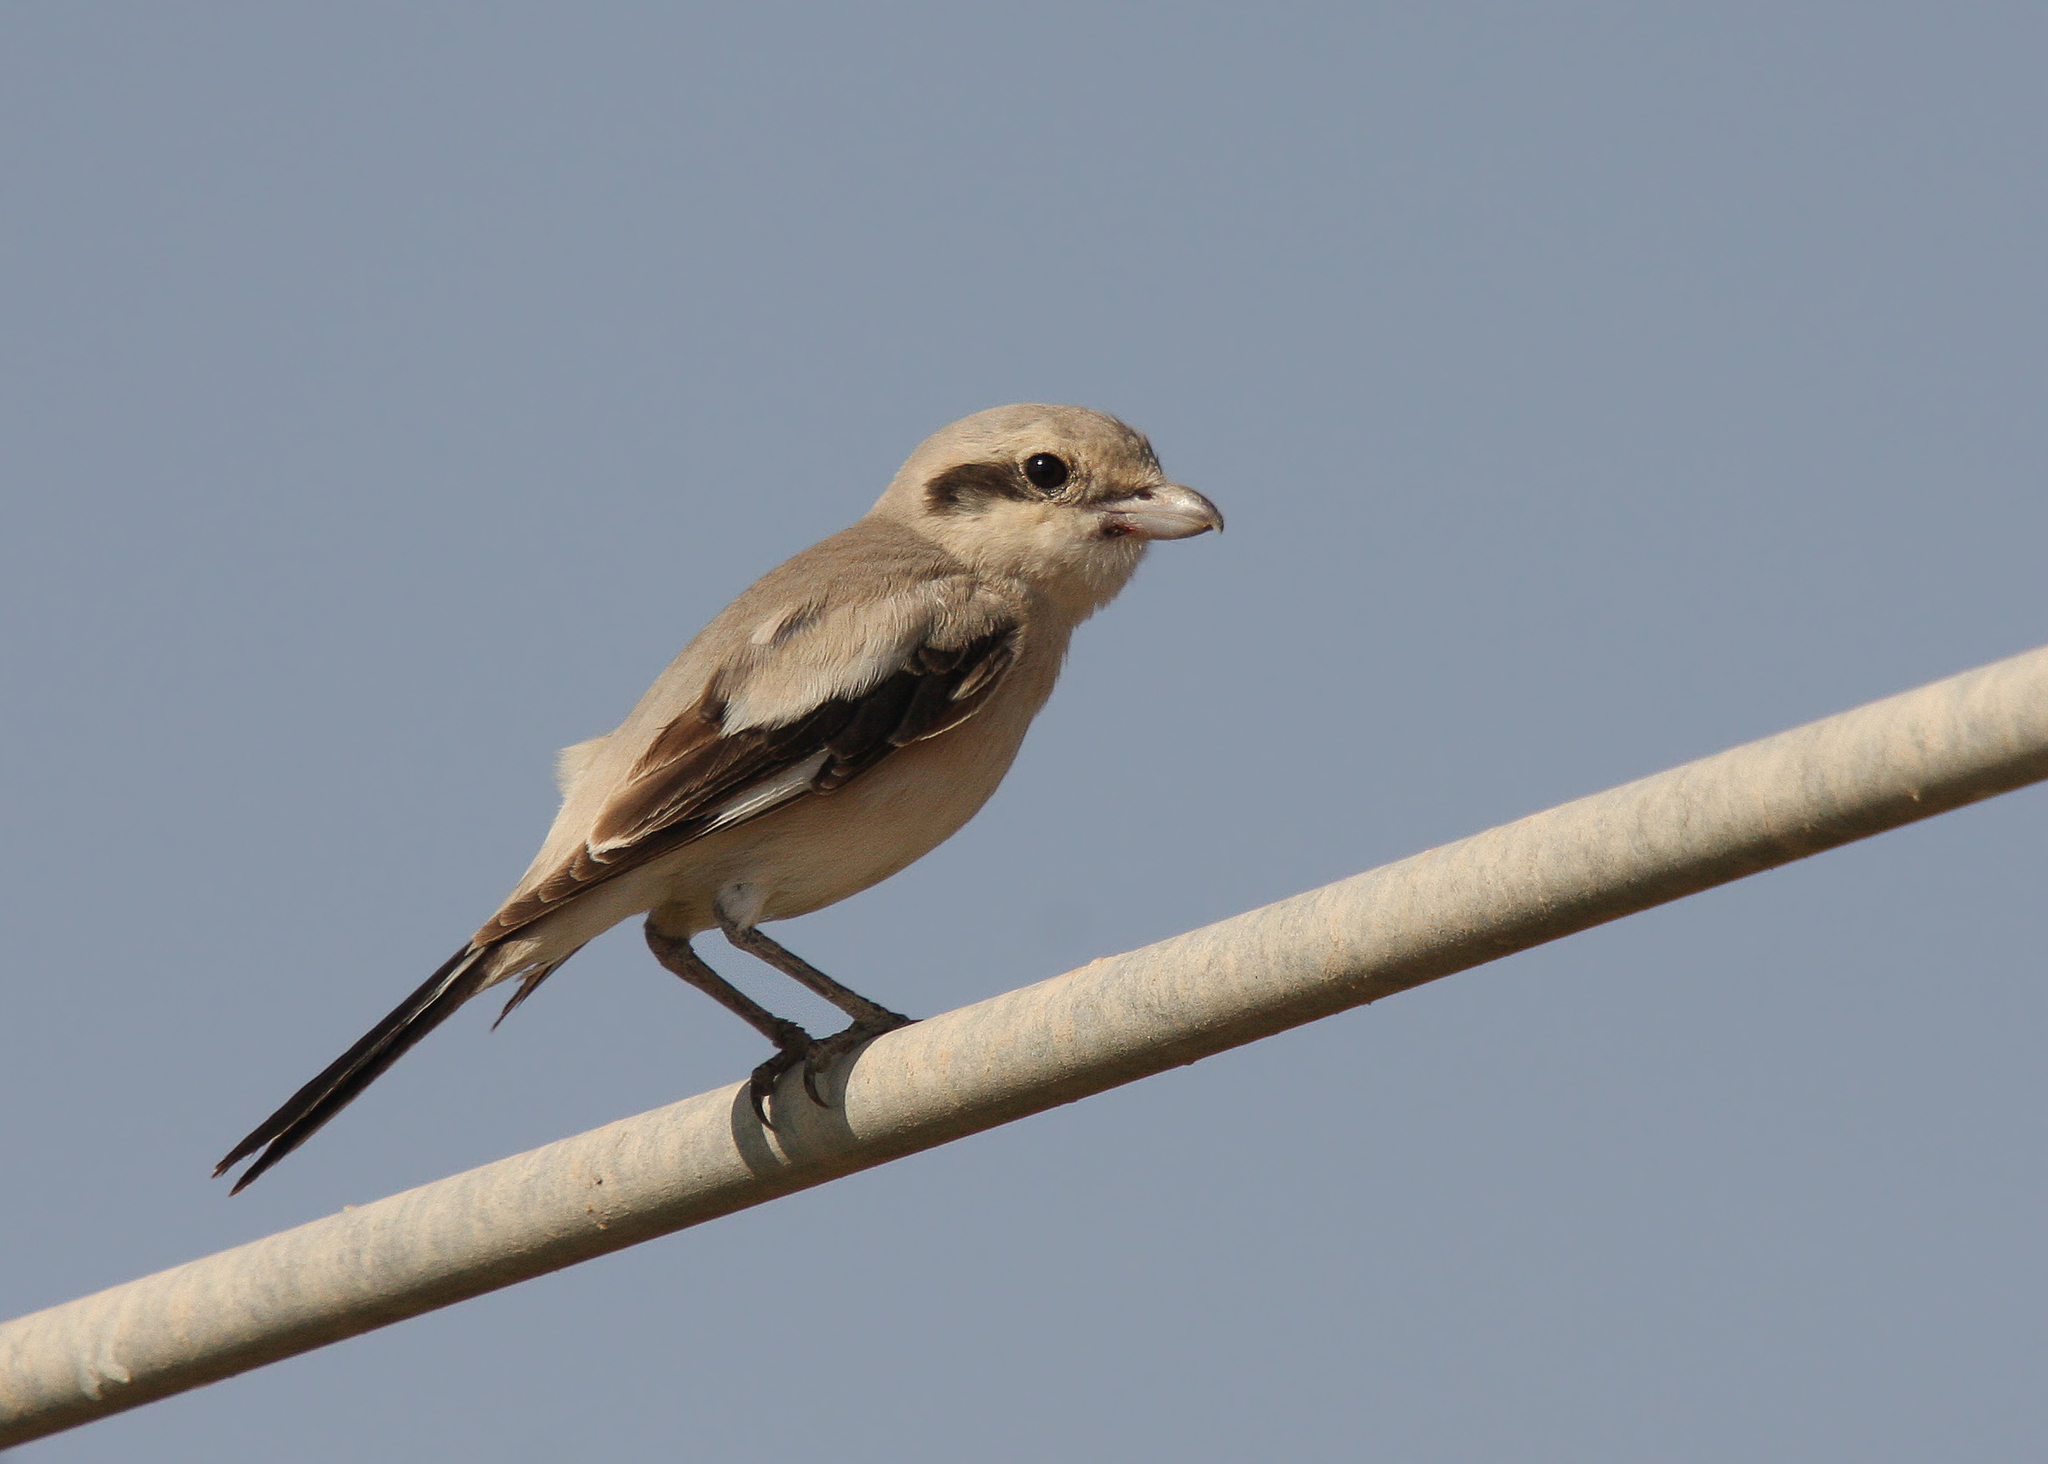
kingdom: Animalia
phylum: Chordata
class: Aves
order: Passeriformes
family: Laniidae
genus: Lanius
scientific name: Lanius excubitor
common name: Great grey shrike
